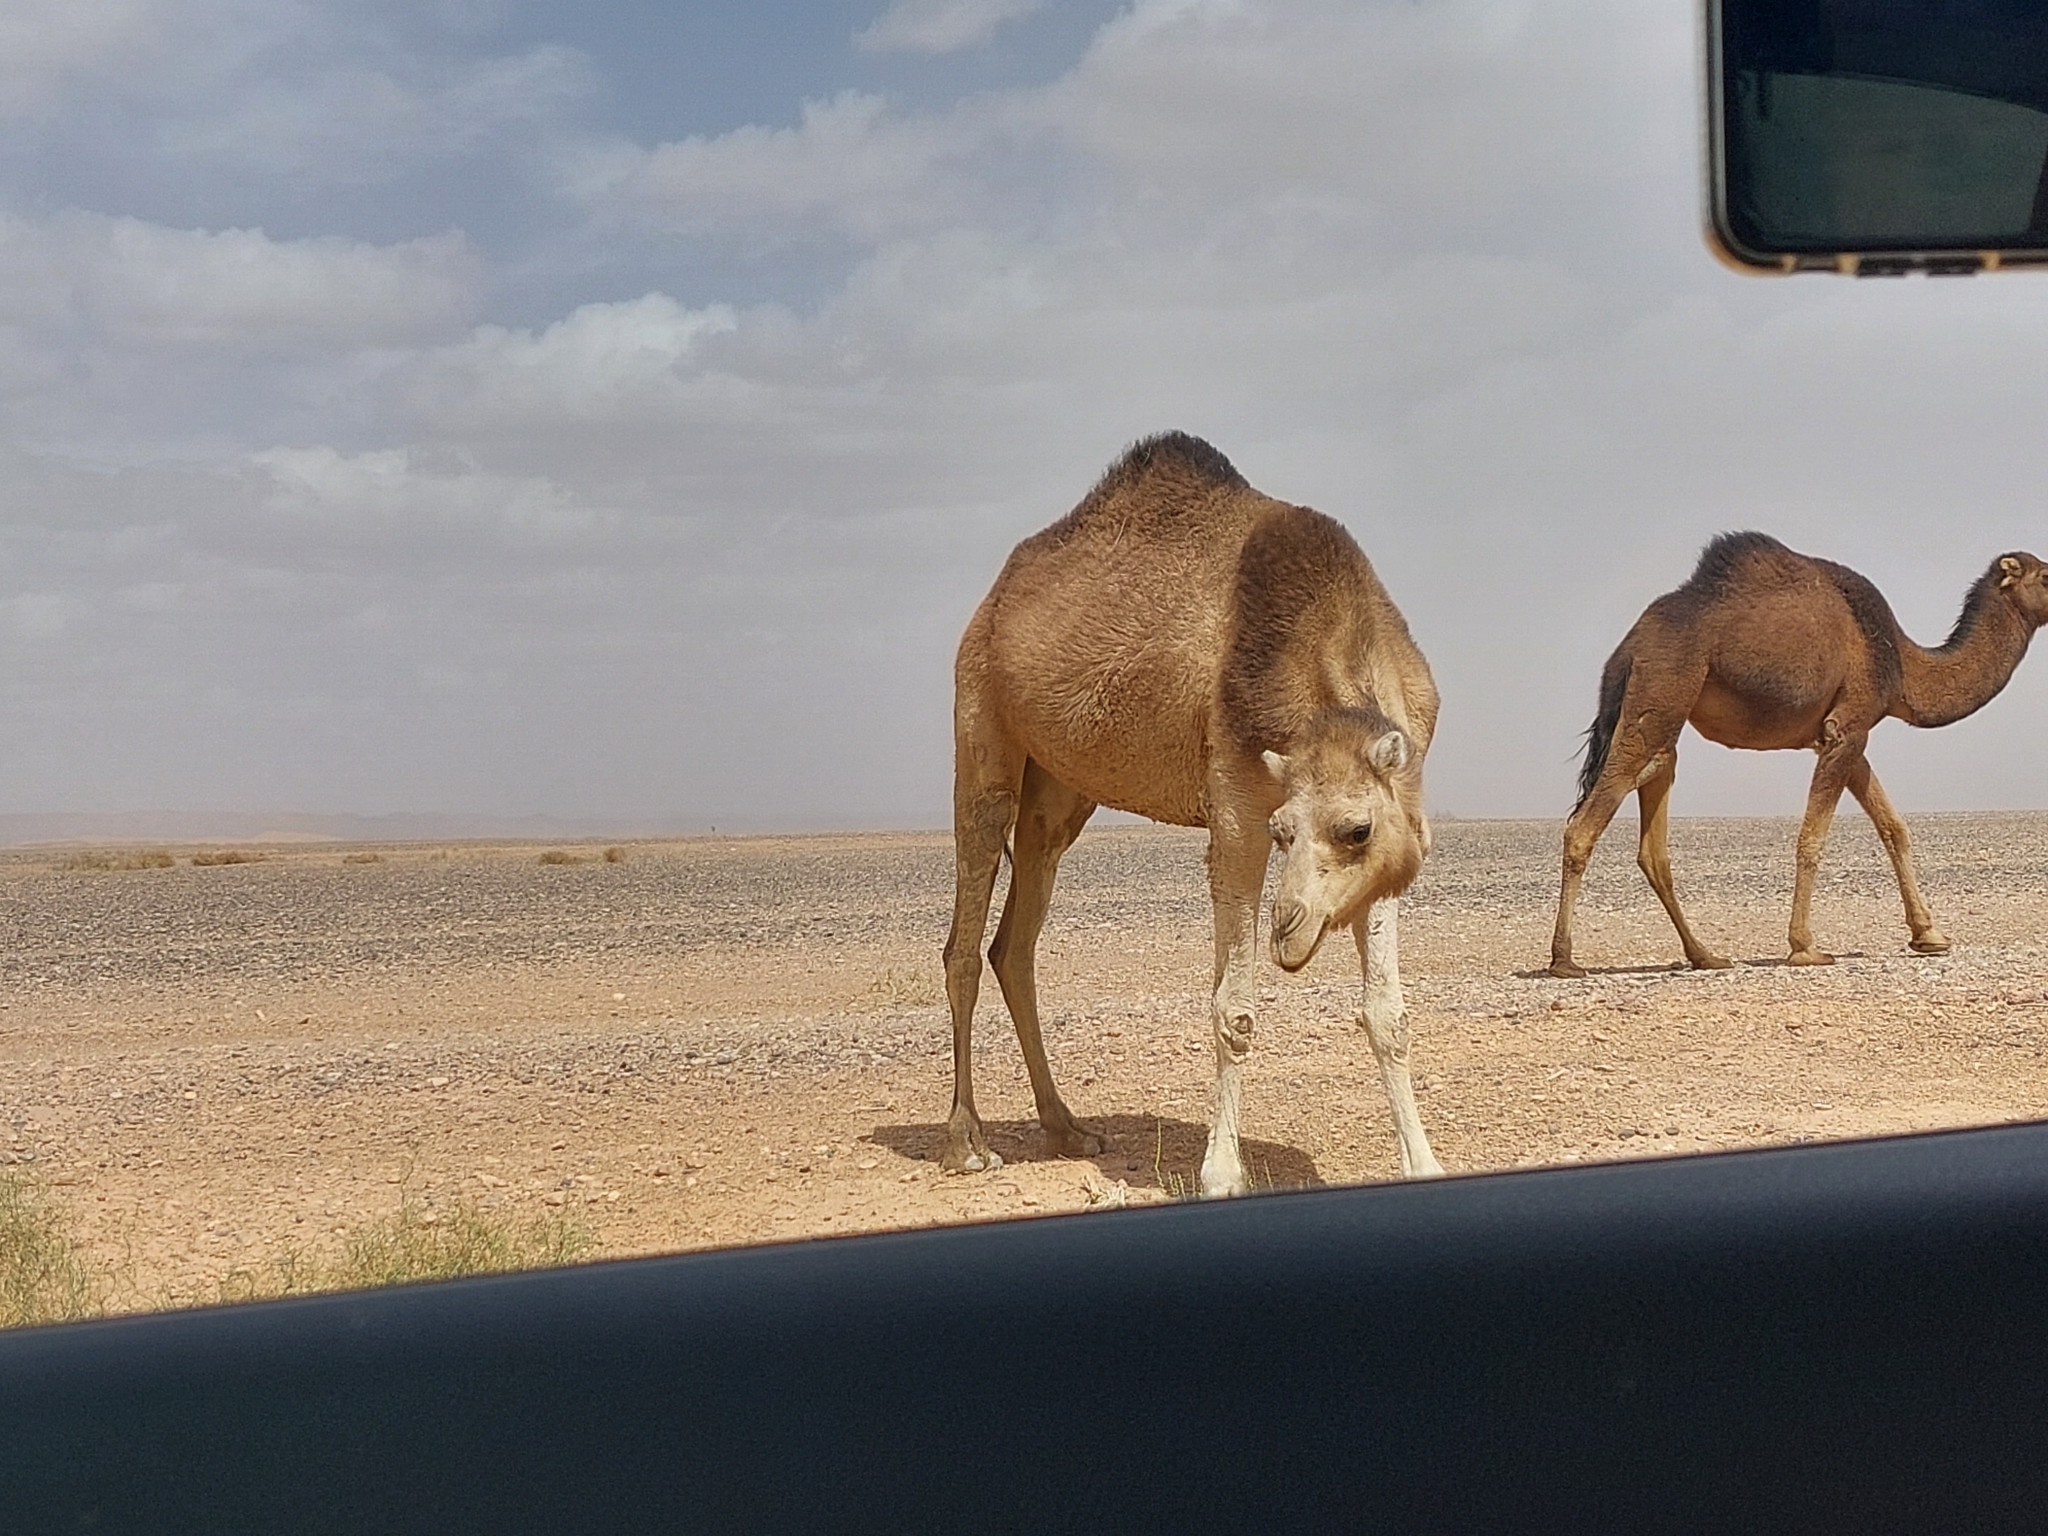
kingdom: Animalia
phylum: Chordata
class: Mammalia
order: Artiodactyla
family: Camelidae
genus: Camelus
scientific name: Camelus dromedarius
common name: One-humped camel
